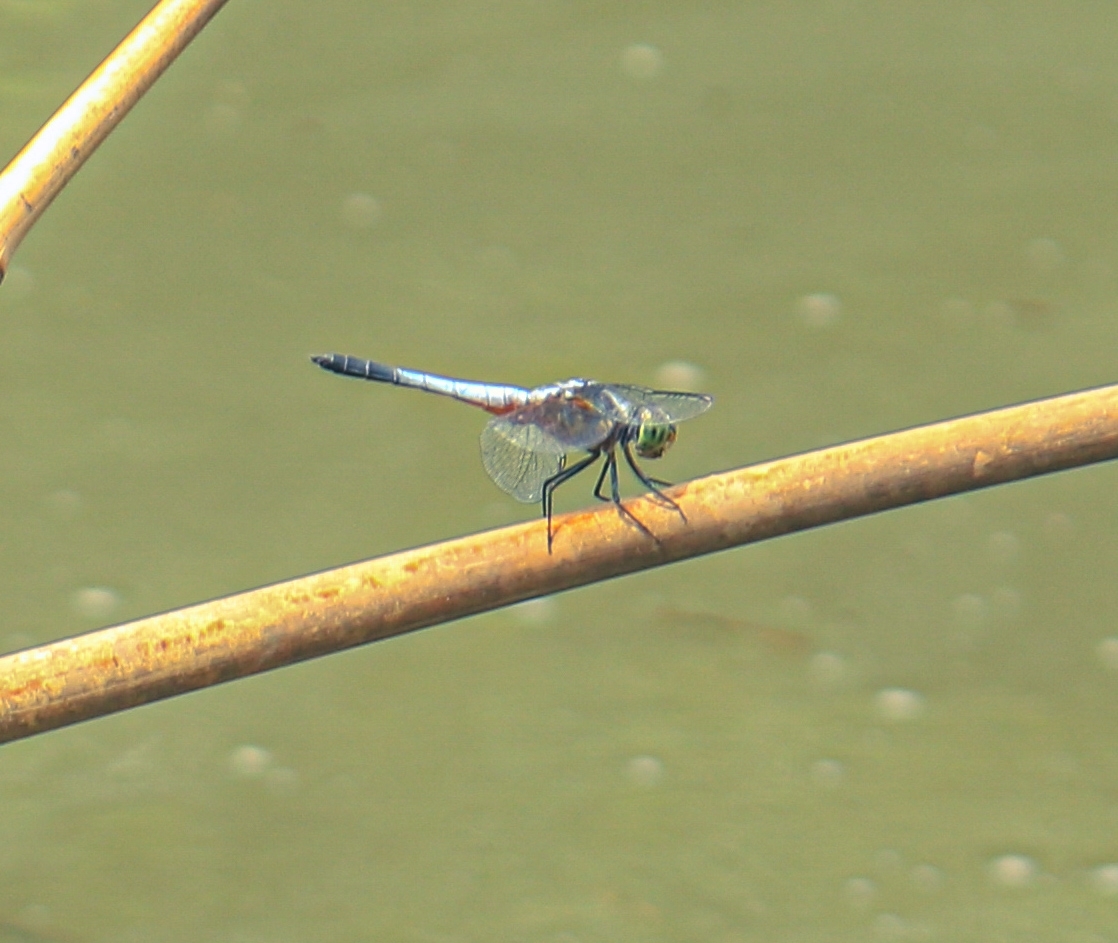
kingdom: Animalia
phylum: Arthropoda
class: Insecta
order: Odonata
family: Libellulidae
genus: Brachydiplax
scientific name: Brachydiplax chalybea
